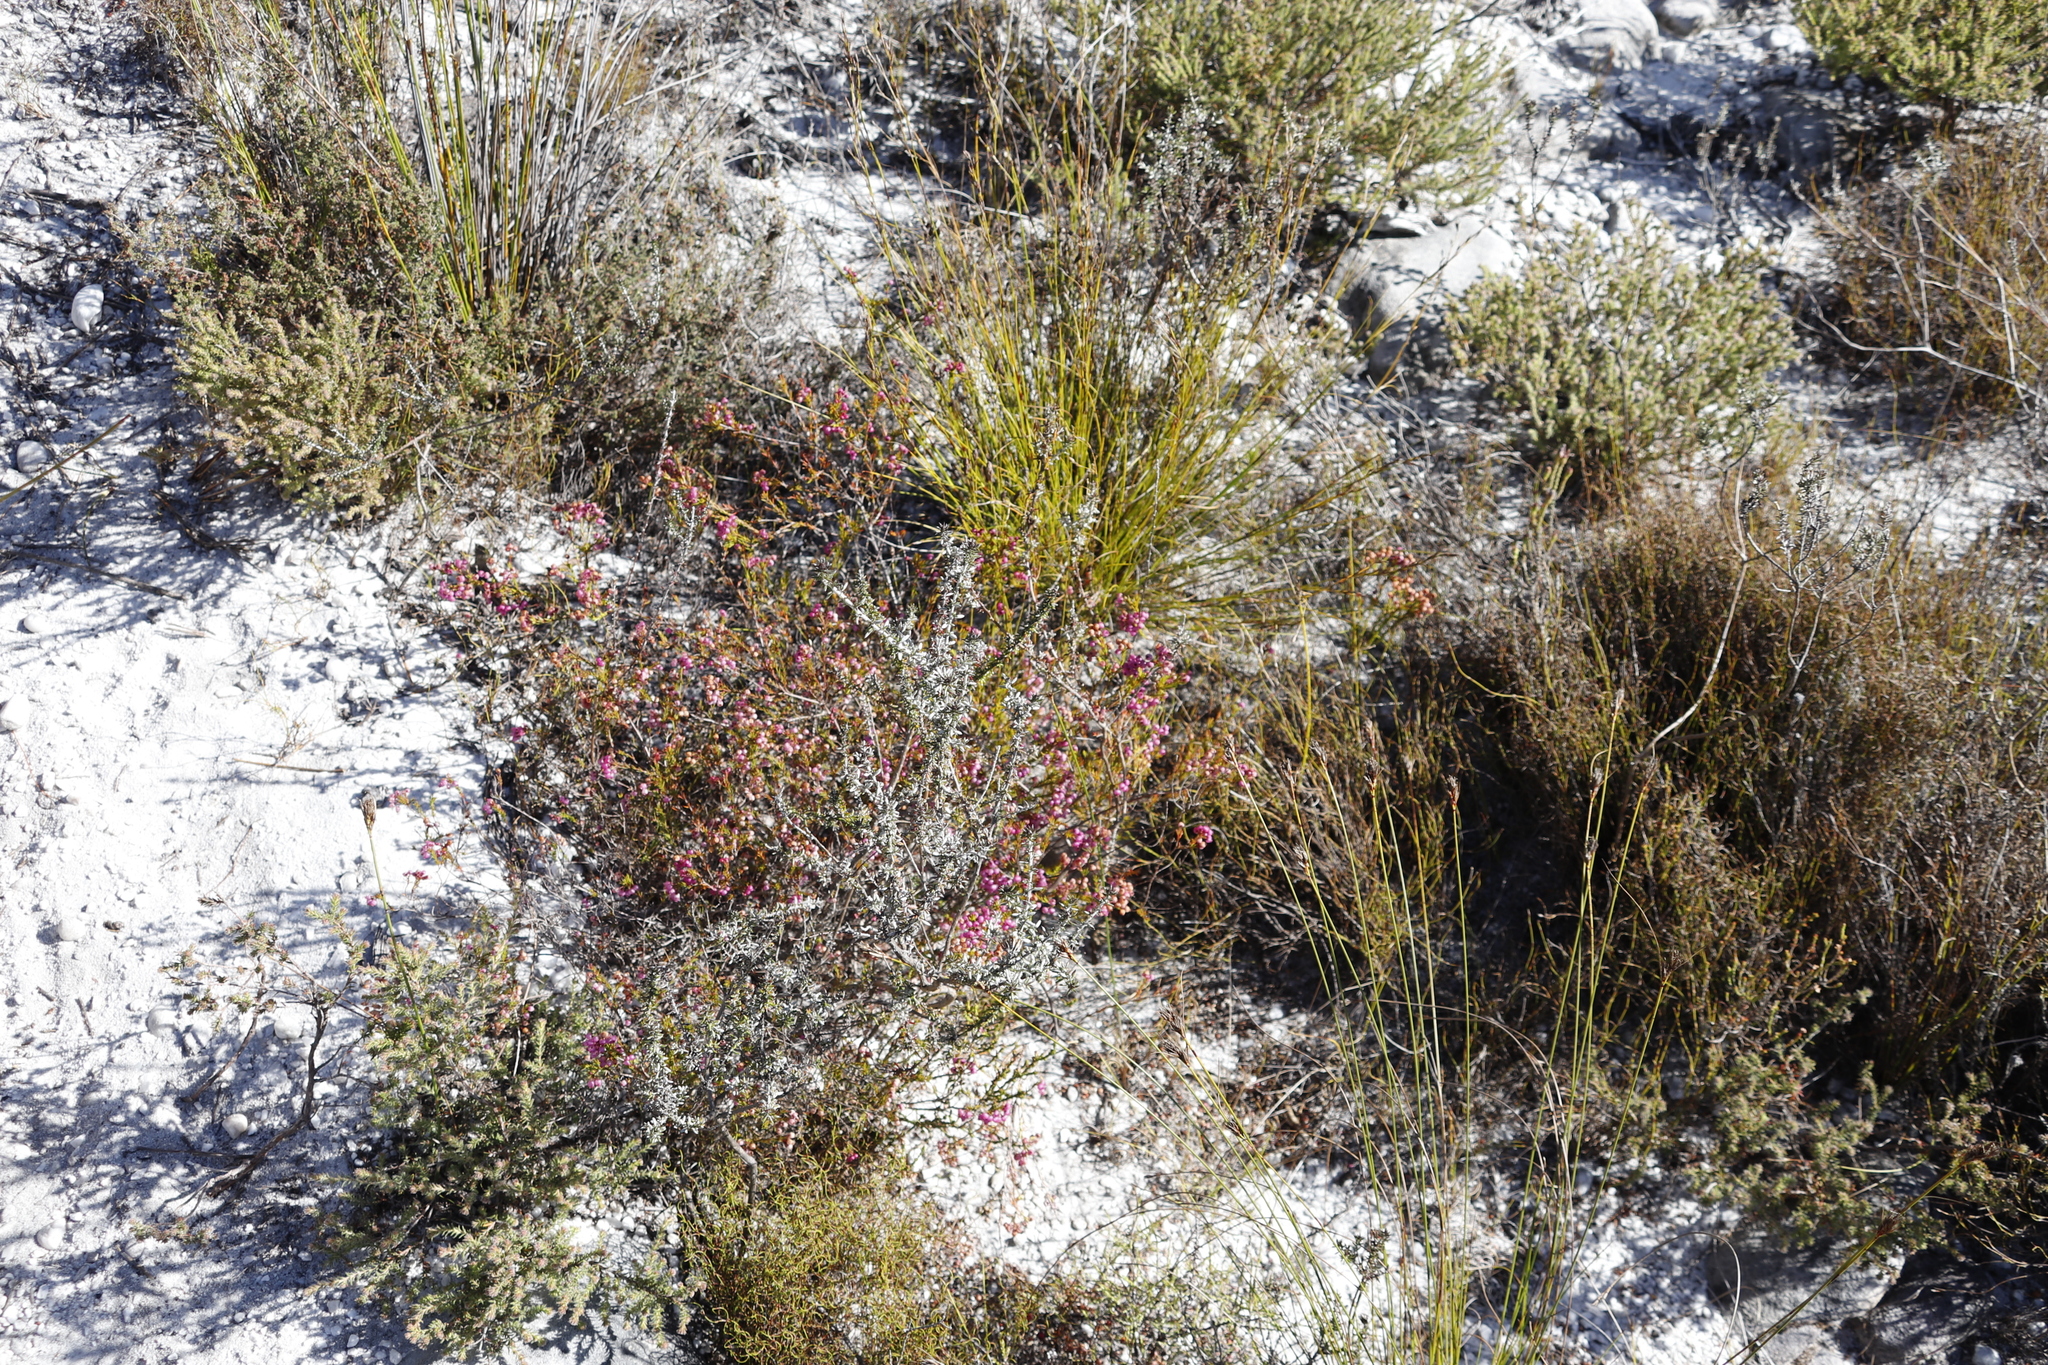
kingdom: Plantae
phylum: Tracheophyta
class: Magnoliopsida
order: Ericales
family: Ericaceae
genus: Erica
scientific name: Erica multumbellifera
